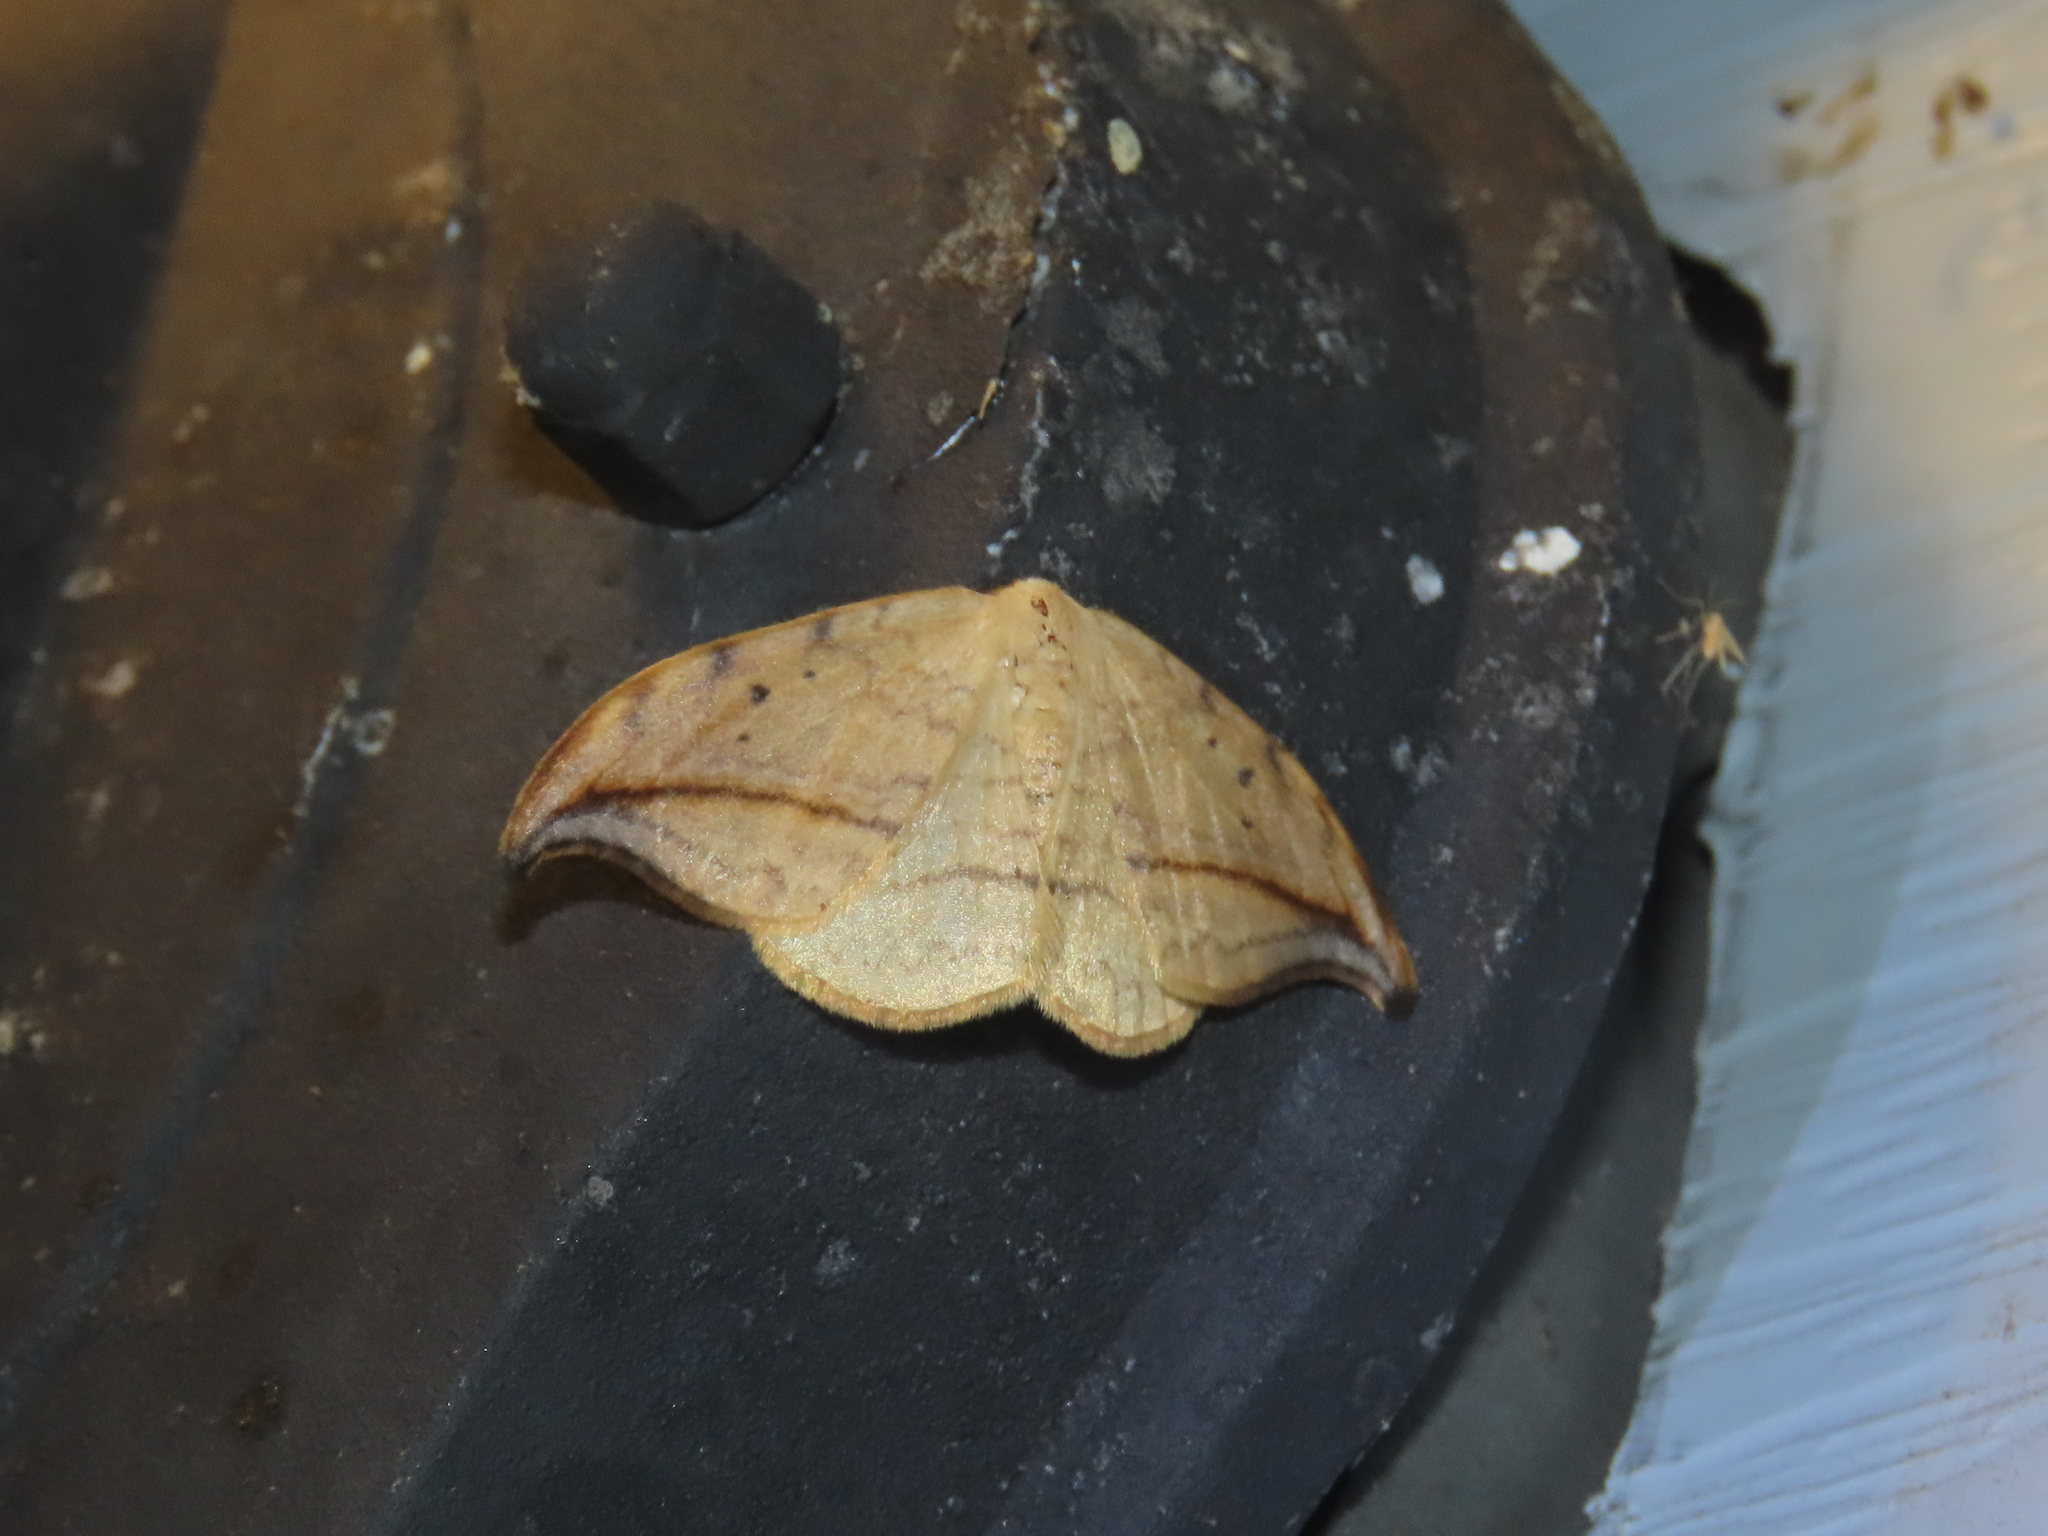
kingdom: Animalia
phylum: Arthropoda
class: Insecta
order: Lepidoptera
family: Drepanidae
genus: Drepana
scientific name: Drepana arcuata
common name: Arched hooktip moth
